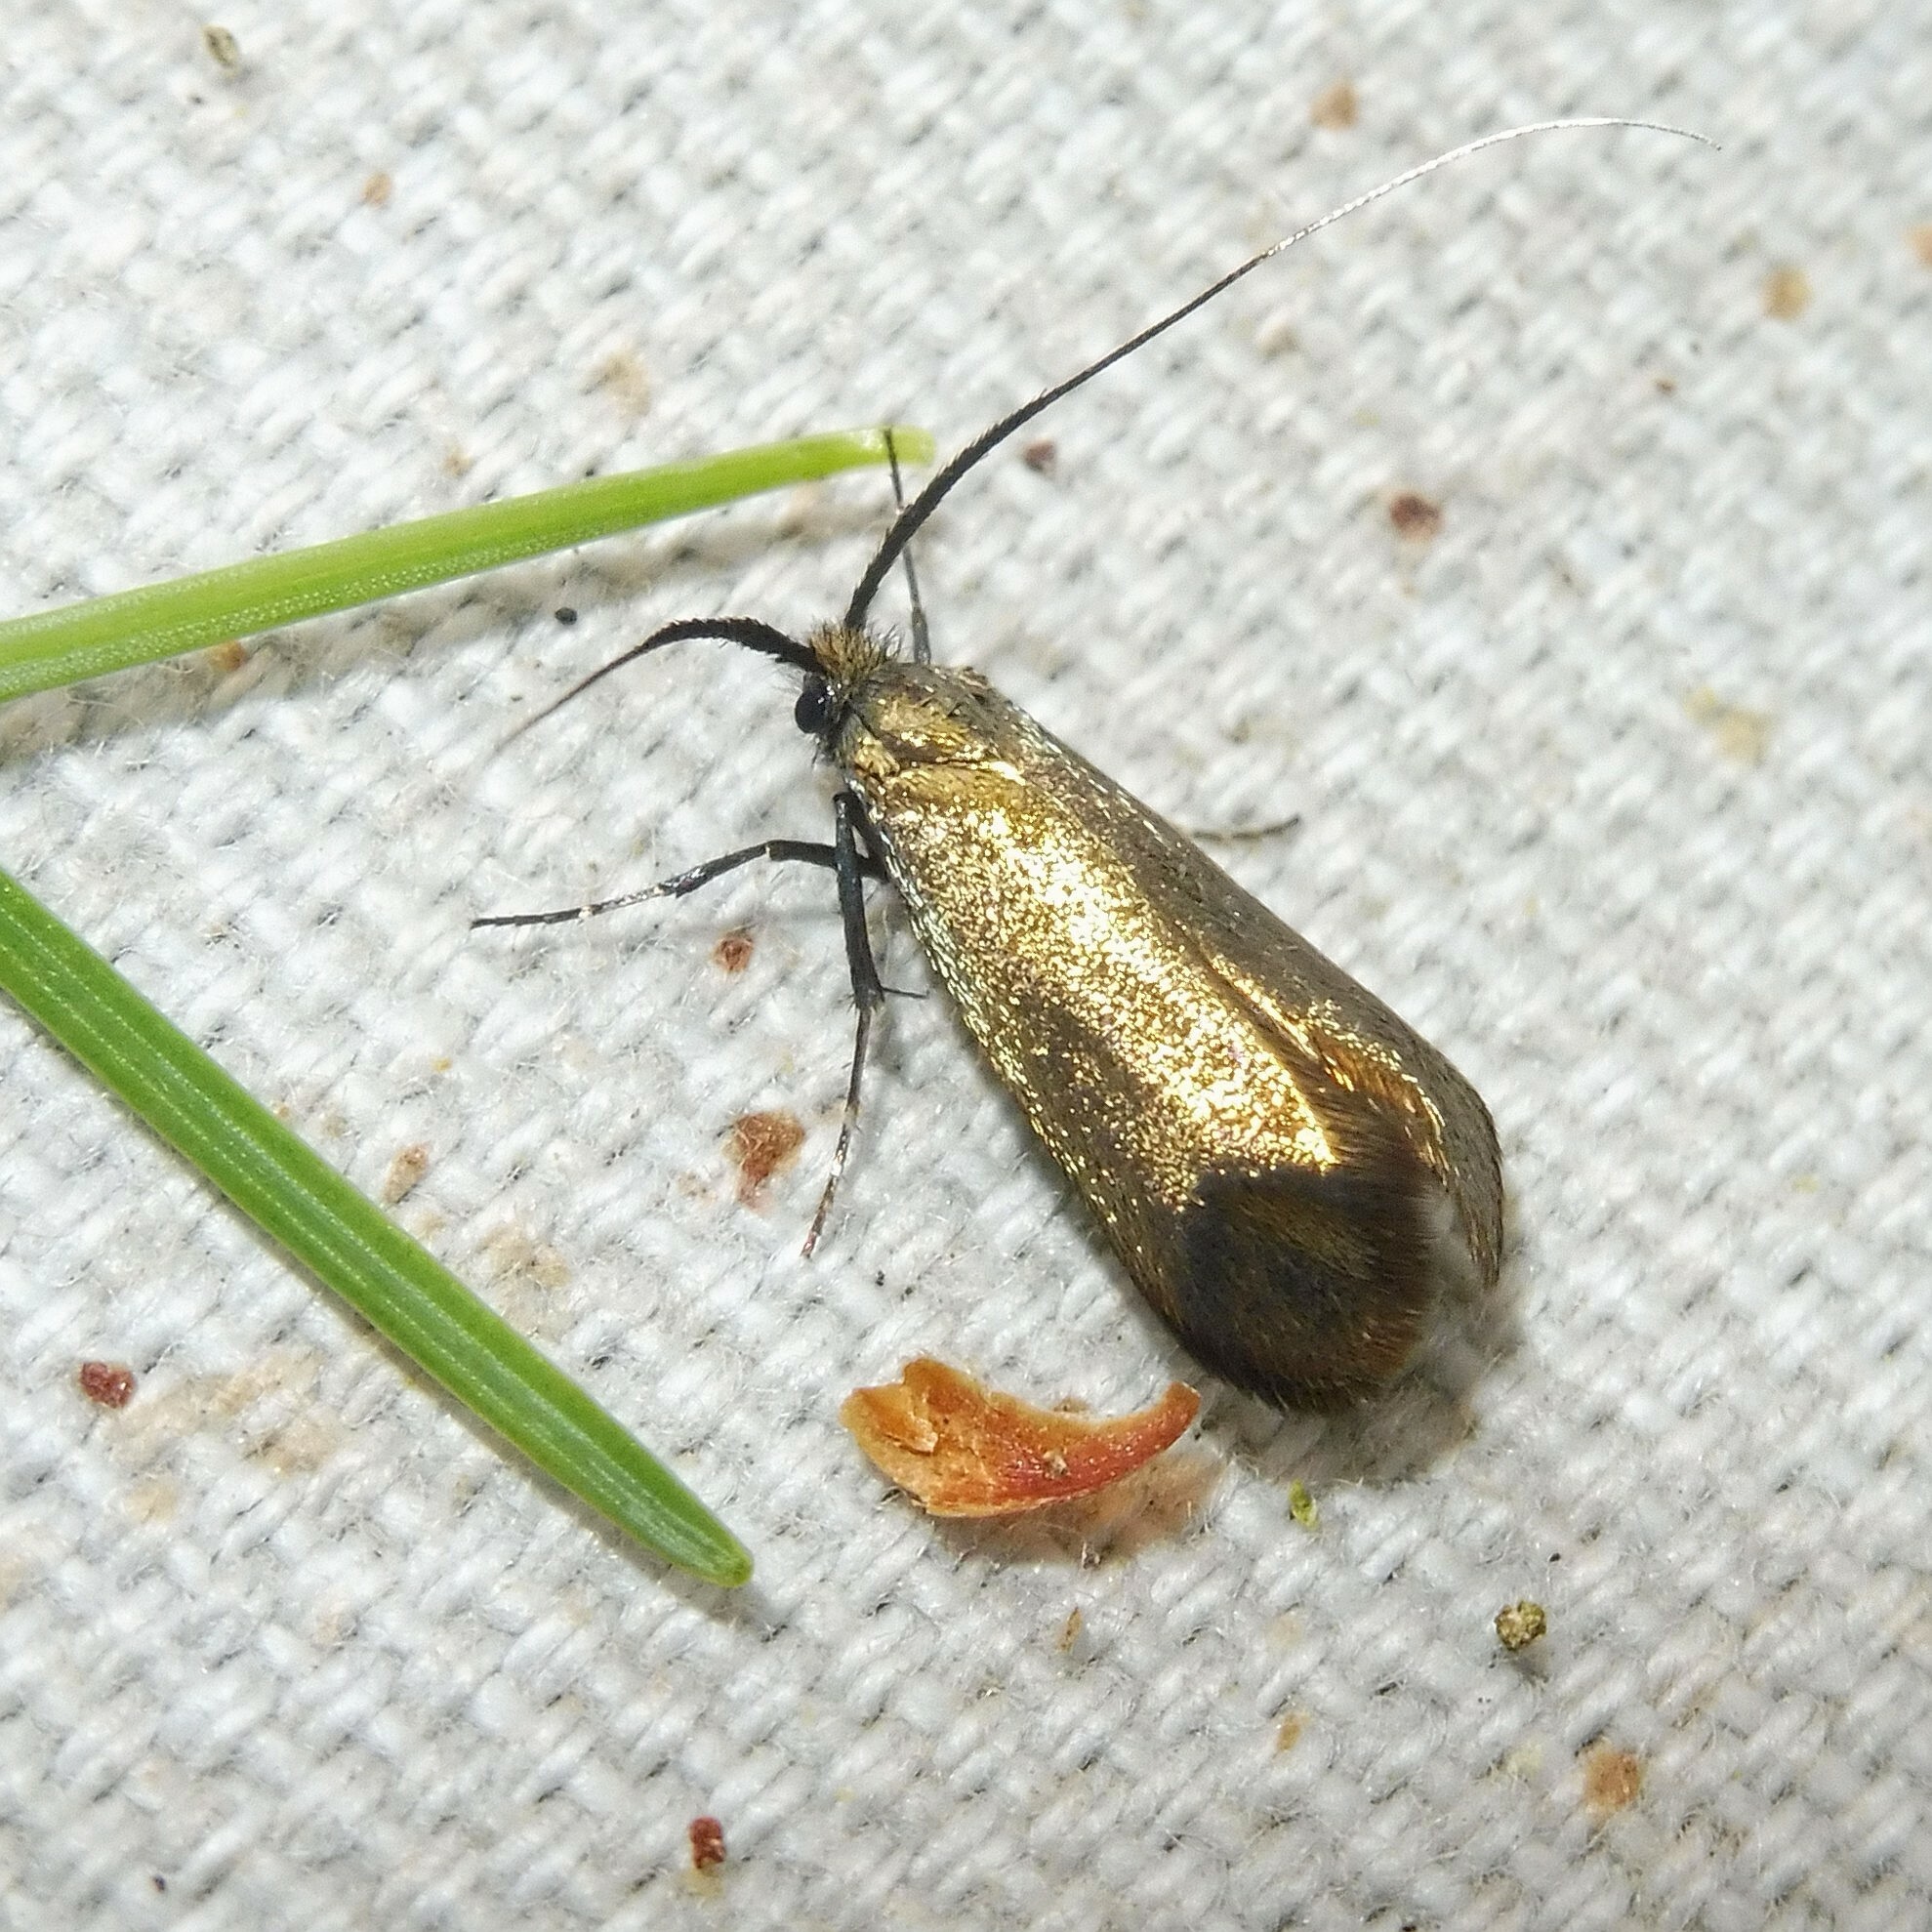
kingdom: Animalia
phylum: Arthropoda
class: Insecta
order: Lepidoptera
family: Adelidae
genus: Adela
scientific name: Adela viridella
